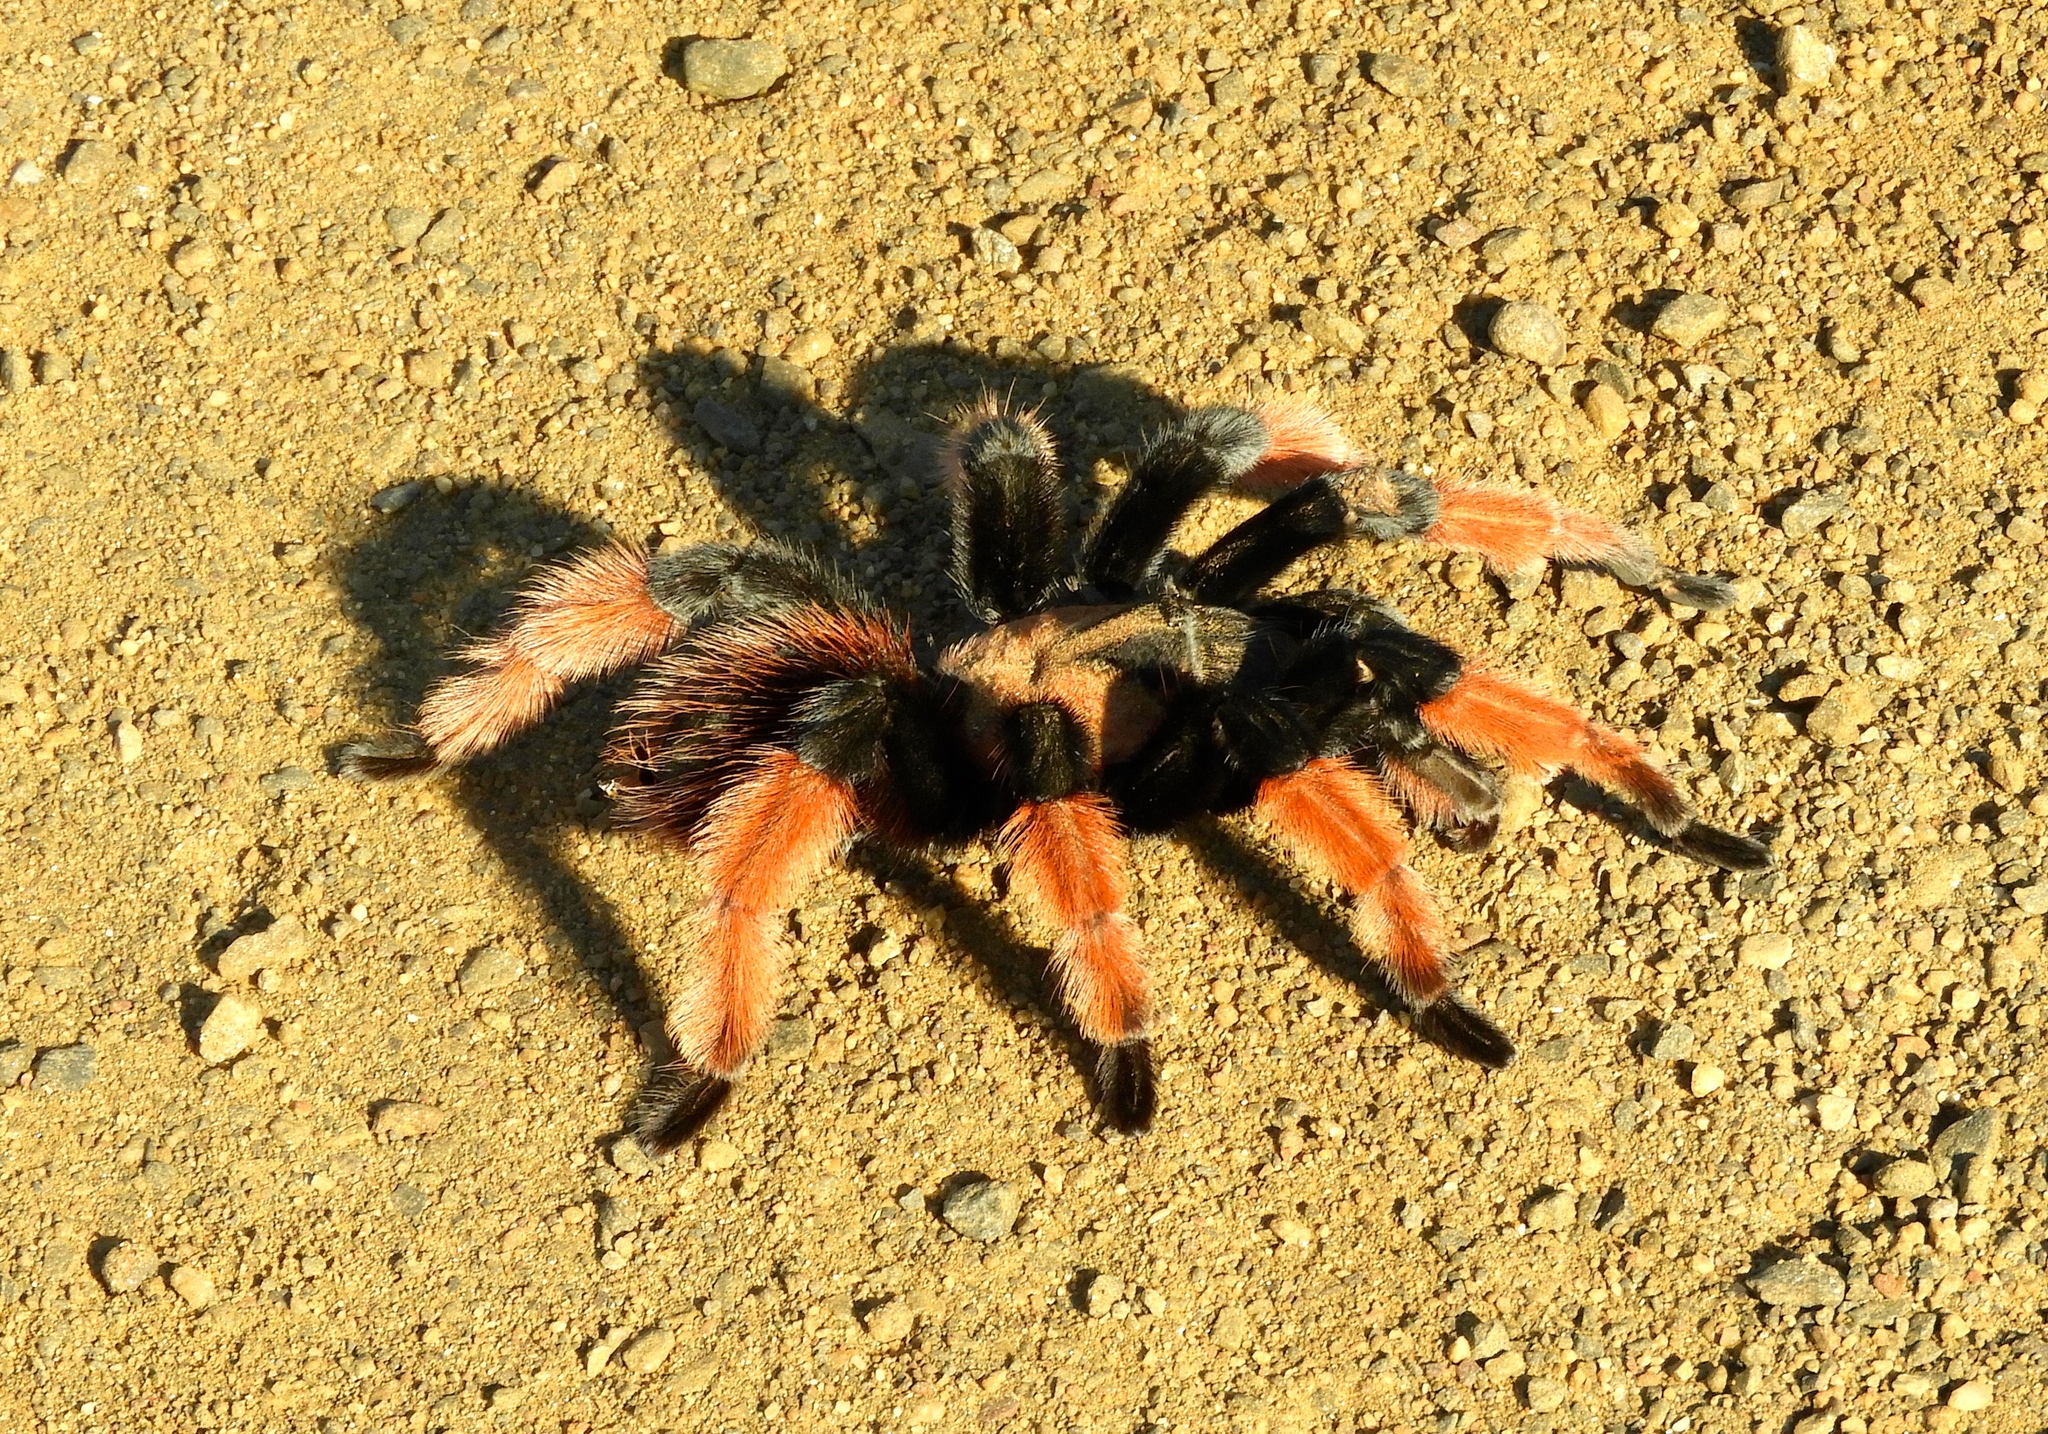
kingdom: Animalia
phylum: Arthropoda
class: Arachnida
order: Araneae
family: Theraphosidae
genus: Brachypelma
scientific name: Brachypelma emilia
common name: Mexican redleg
